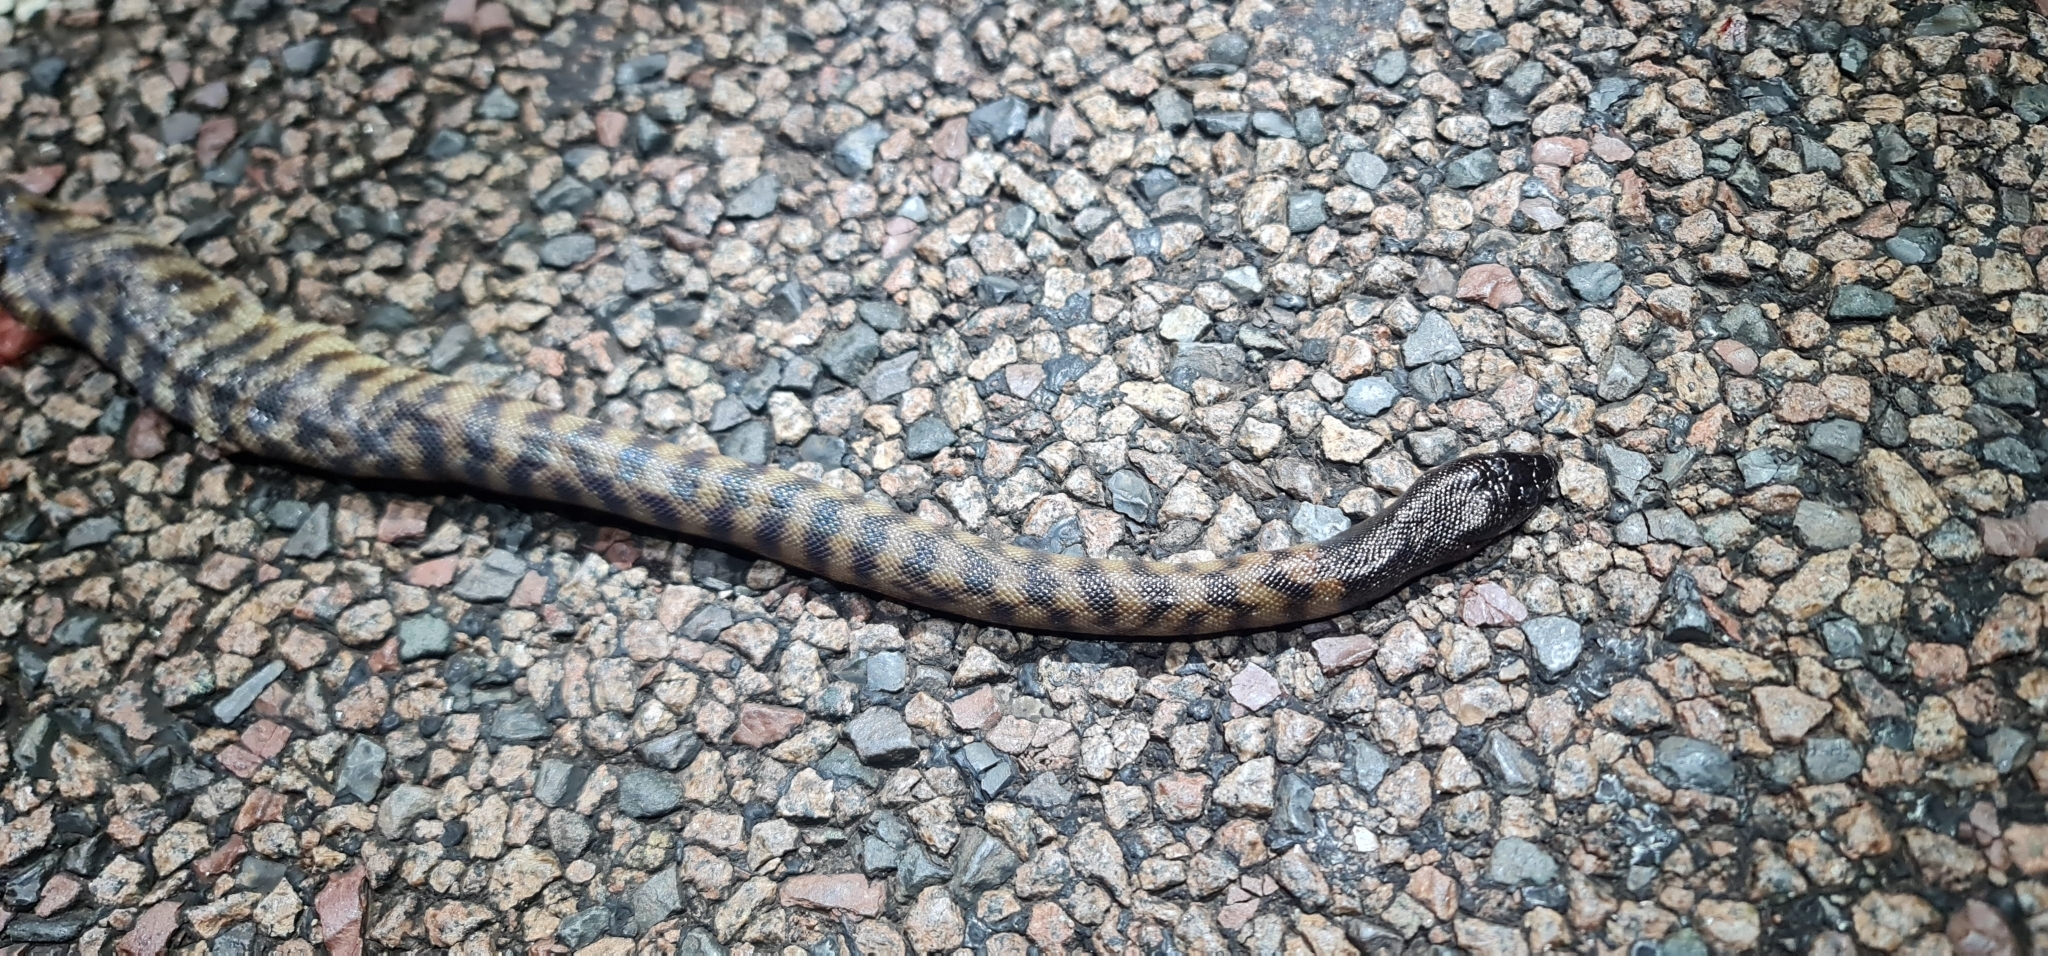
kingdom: Animalia
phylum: Chordata
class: Squamata
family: Pythonidae
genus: Aspidites
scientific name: Aspidites melanocephalus
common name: Black-headed python
